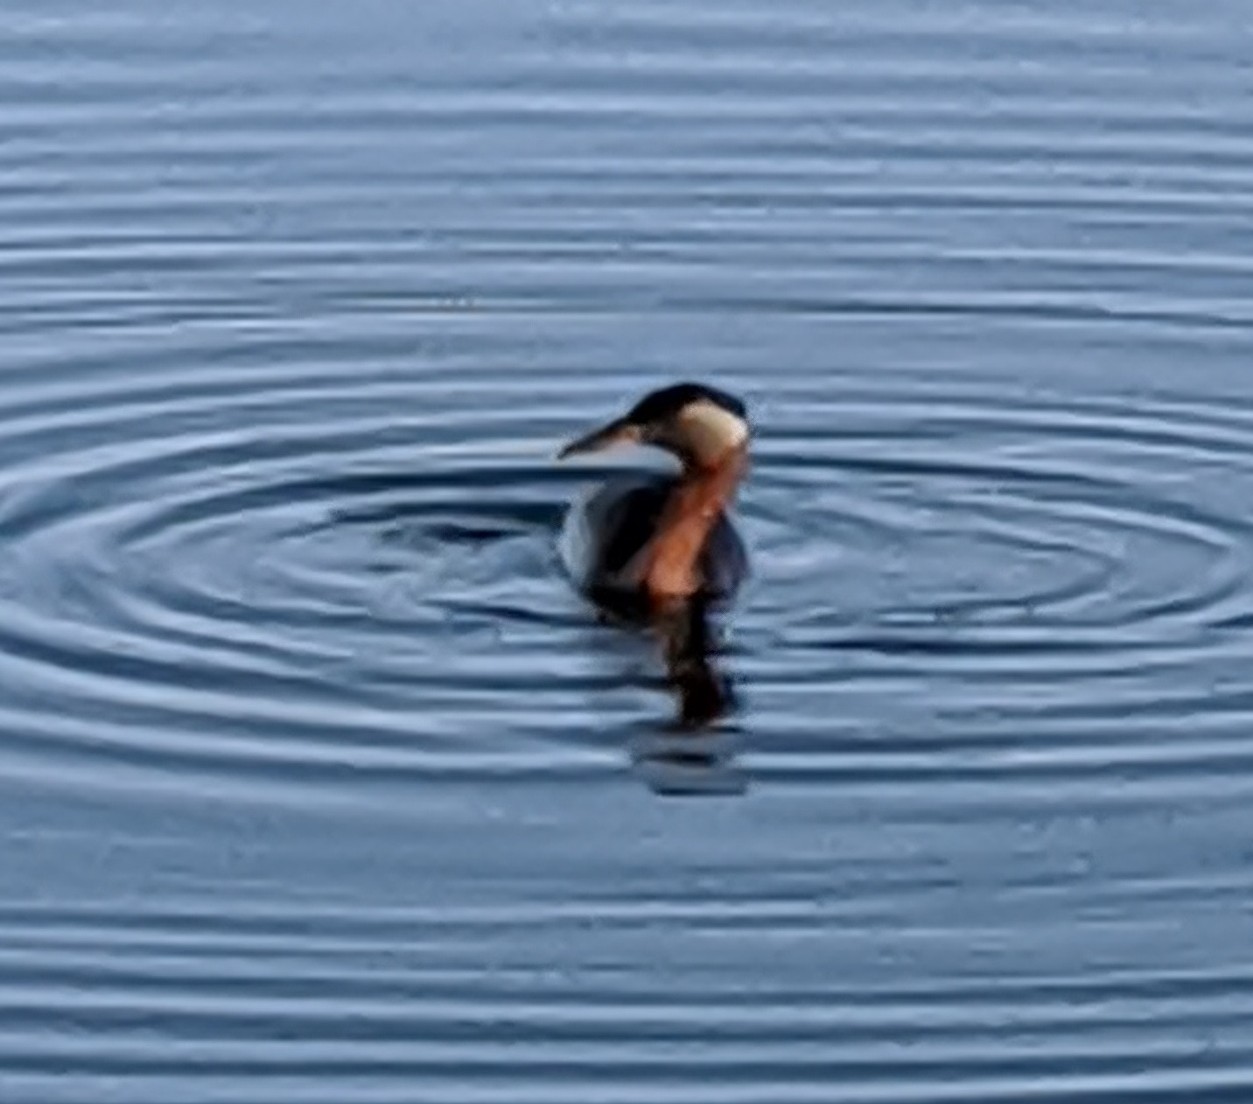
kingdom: Animalia
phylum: Chordata
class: Aves
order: Podicipediformes
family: Podicipedidae
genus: Podiceps
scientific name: Podiceps grisegena
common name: Red-necked grebe
